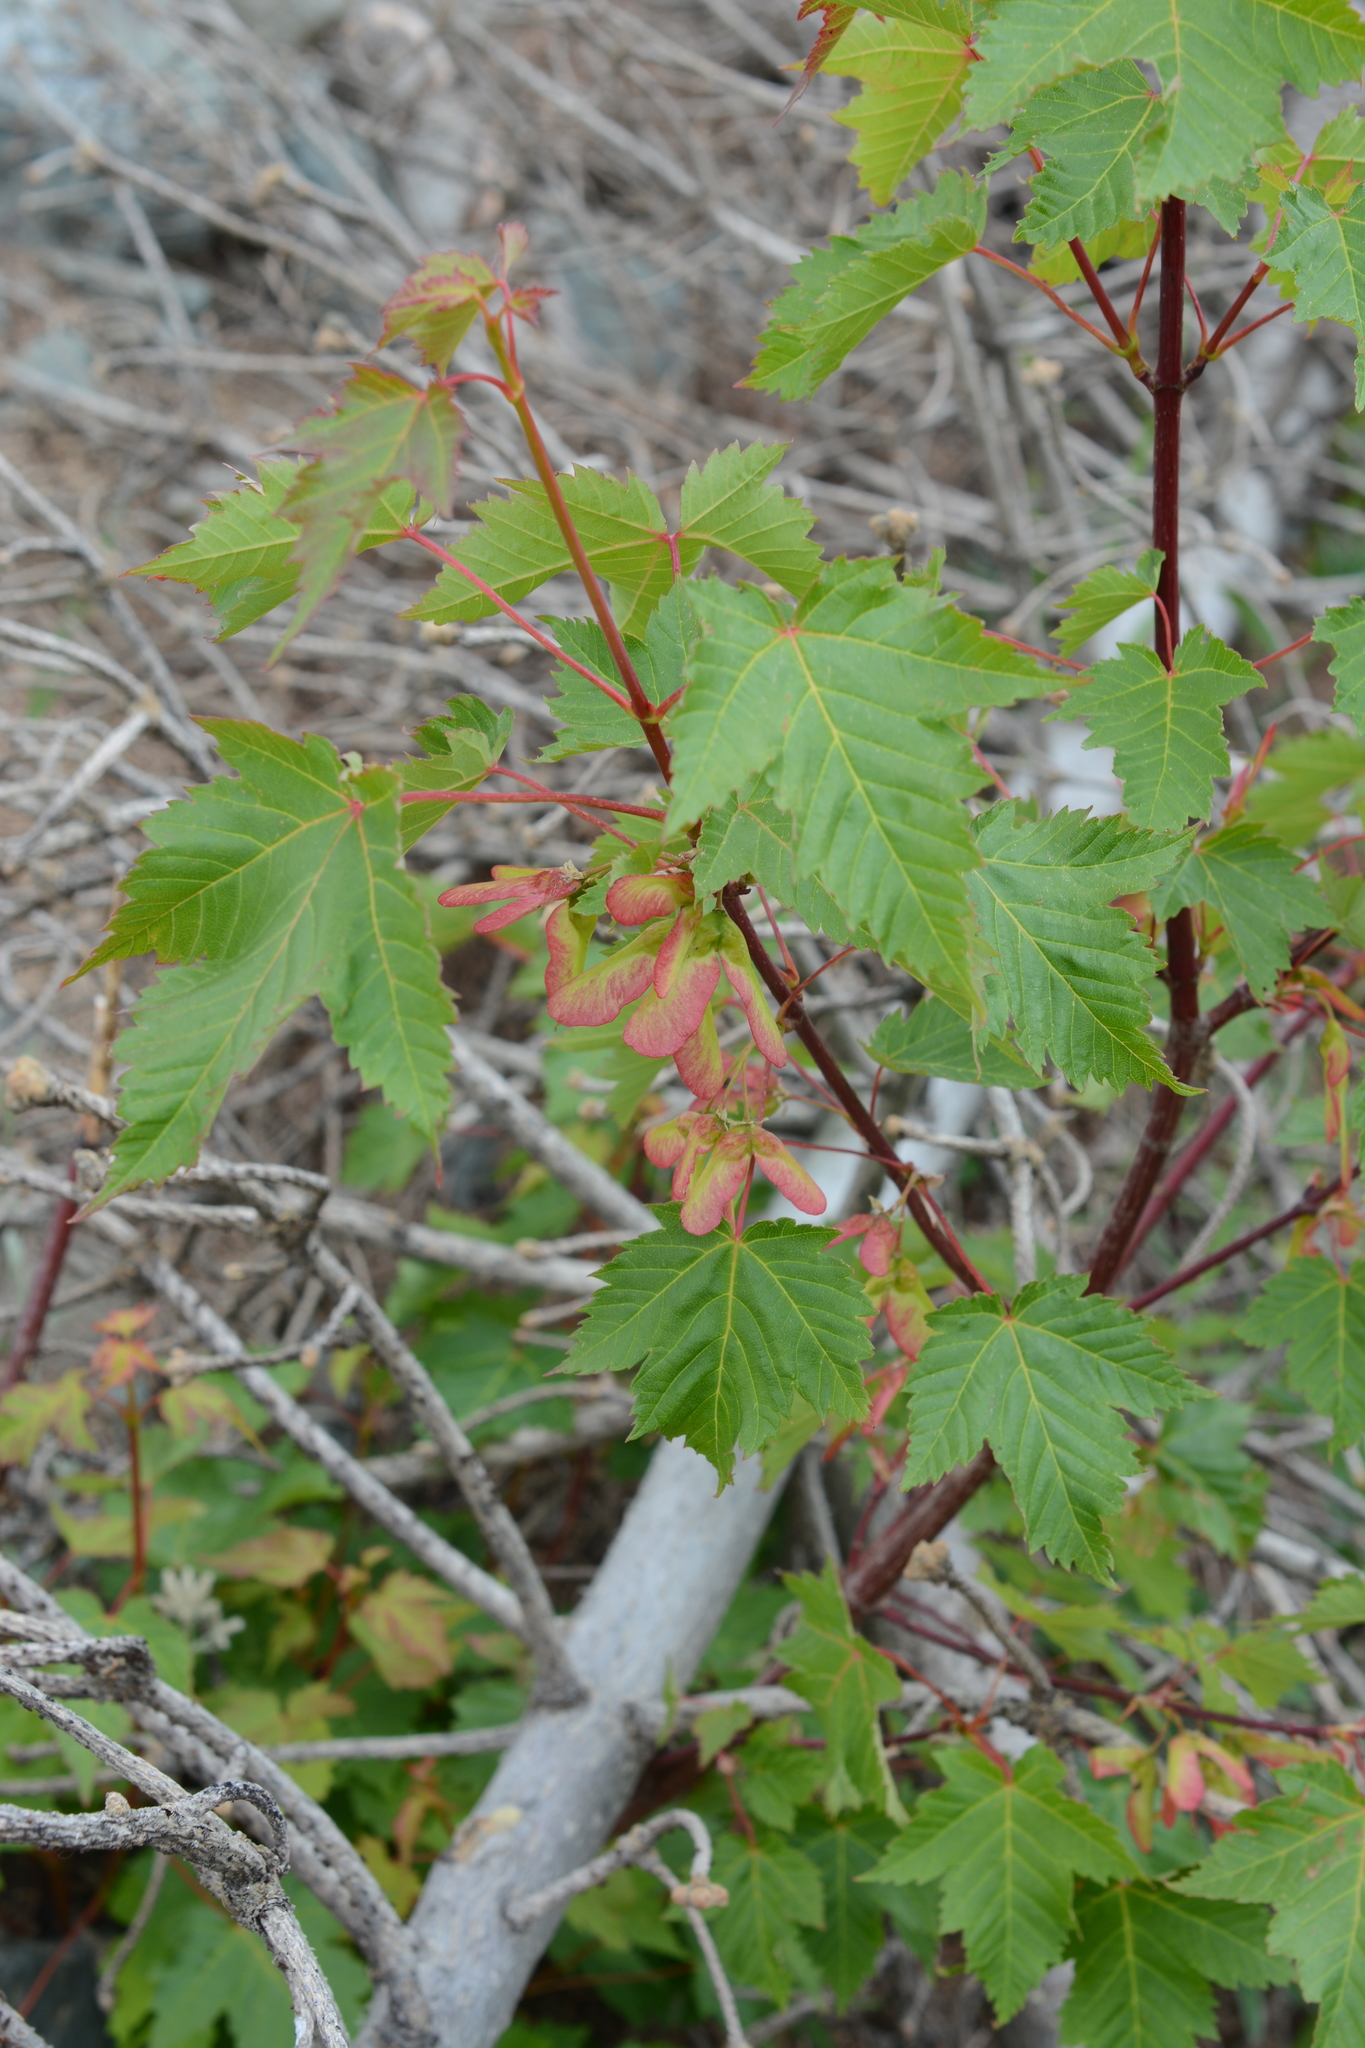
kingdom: Plantae
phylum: Tracheophyta
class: Magnoliopsida
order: Sapindales
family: Sapindaceae
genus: Acer
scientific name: Acer glabrum
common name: Rocky mountain maple
